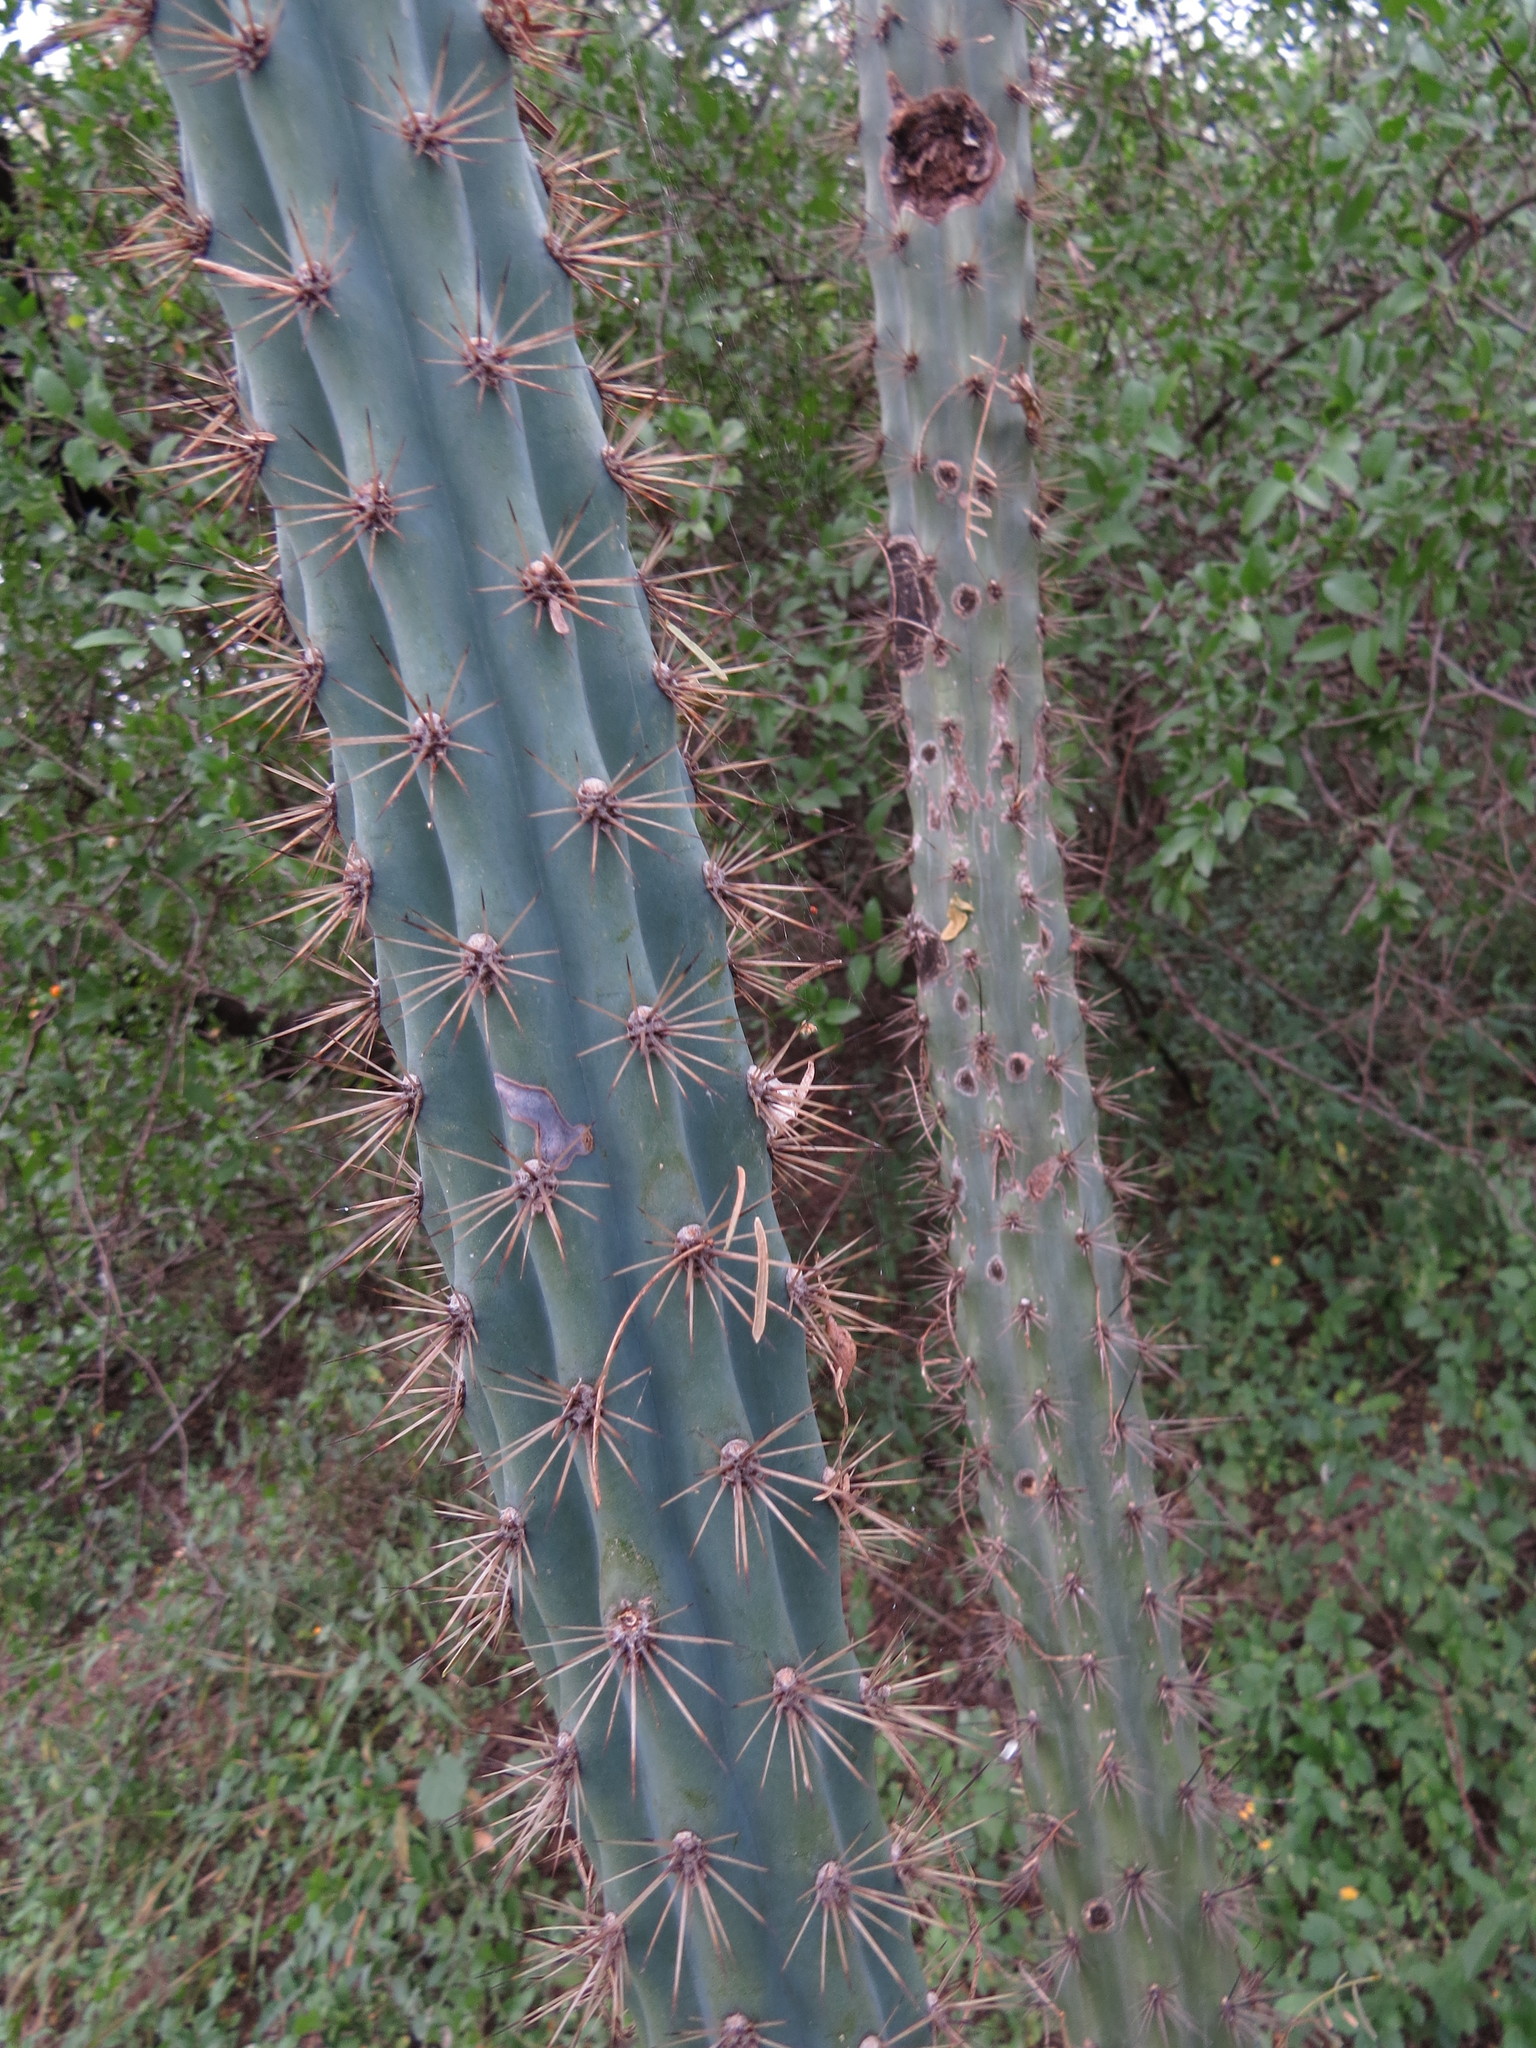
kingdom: Plantae
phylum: Tracheophyta
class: Magnoliopsida
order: Caryophyllales
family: Cactaceae
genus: Cereus
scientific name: Cereus aethiops
